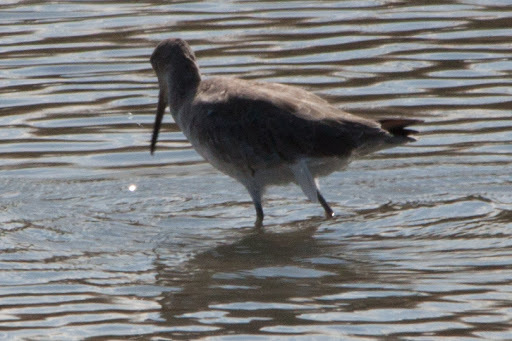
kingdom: Animalia
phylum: Chordata
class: Aves
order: Charadriiformes
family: Scolopacidae
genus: Tringa
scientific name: Tringa semipalmata
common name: Willet
